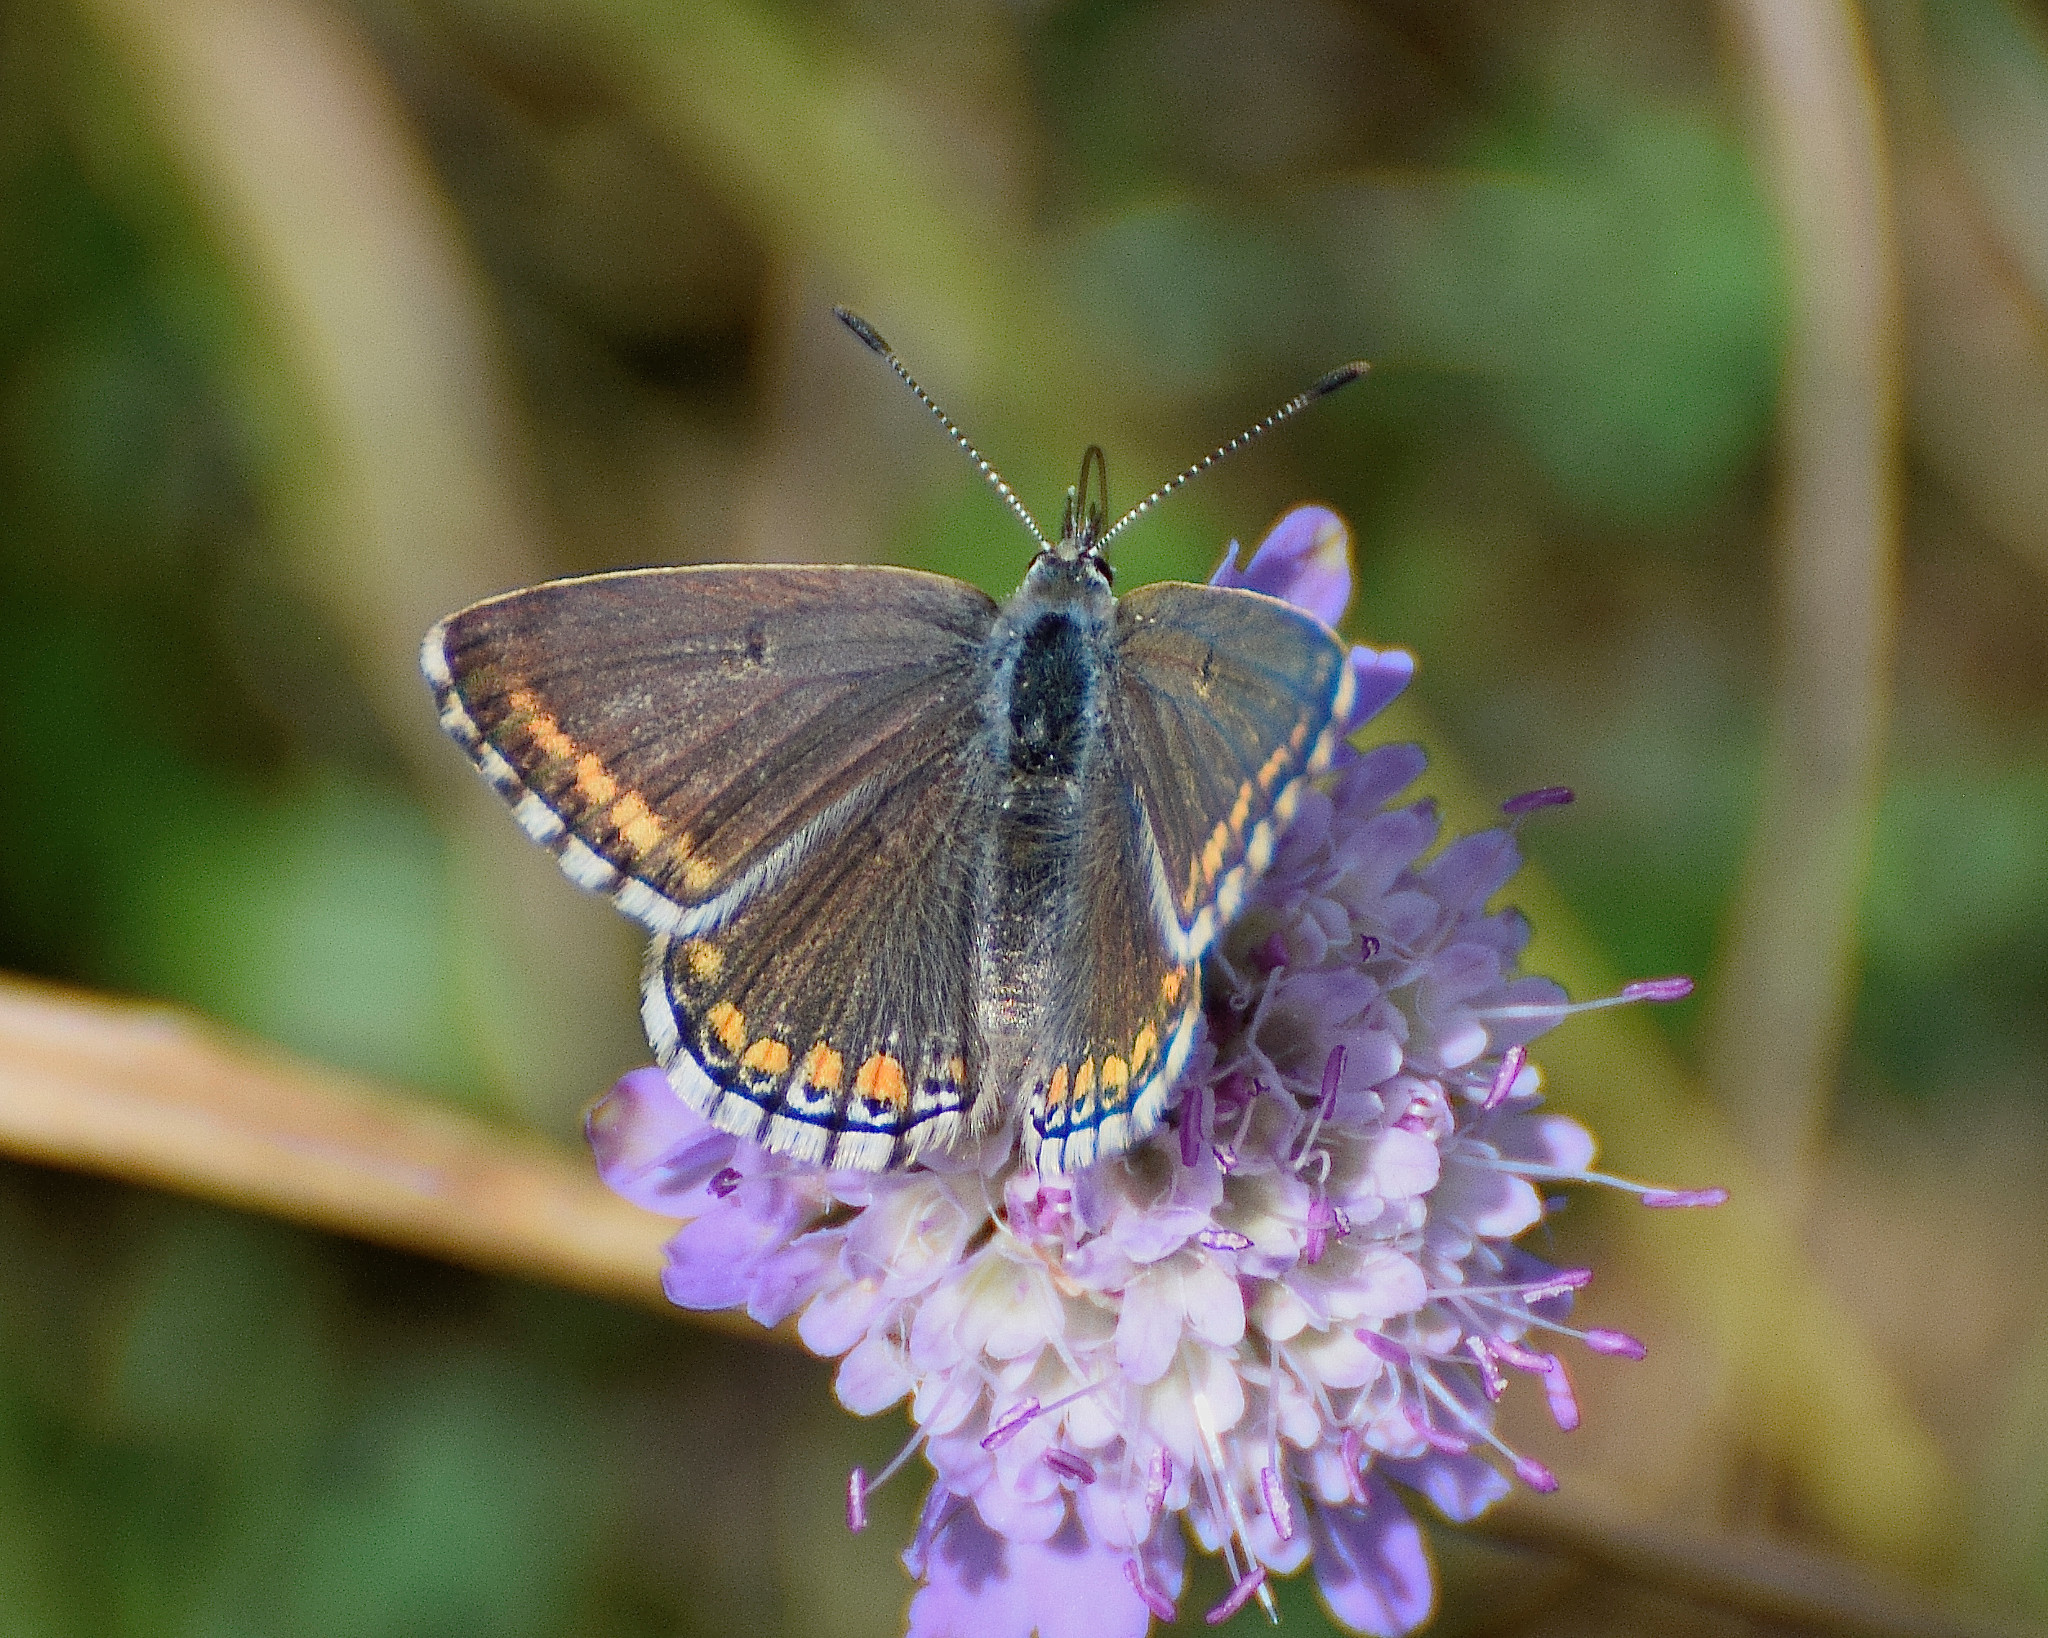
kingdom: Animalia
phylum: Arthropoda
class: Insecta
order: Lepidoptera
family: Lycaenidae
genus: Lysandra
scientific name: Lysandra bellargus
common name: Adonis blue
